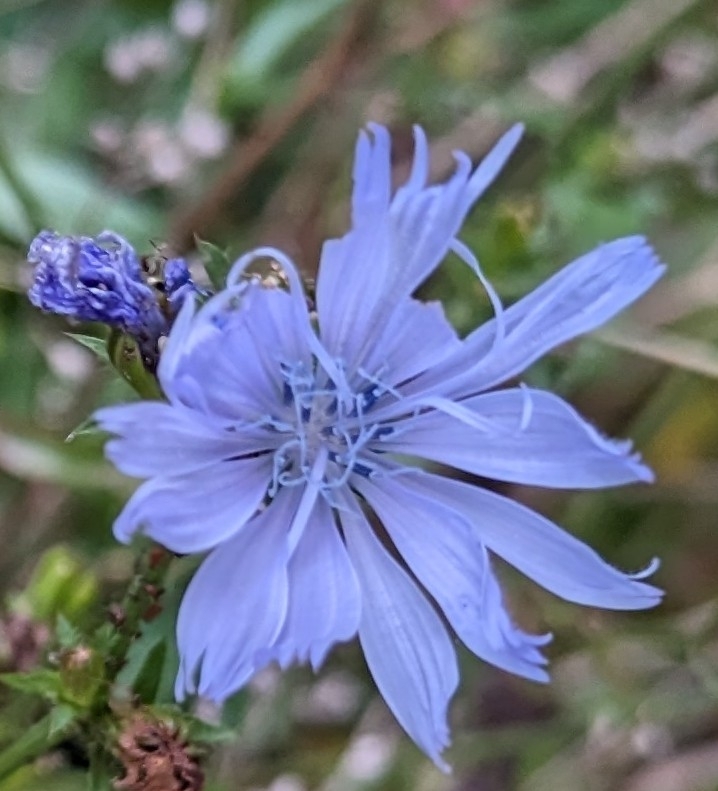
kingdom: Plantae
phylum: Tracheophyta
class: Magnoliopsida
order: Asterales
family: Asteraceae
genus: Cichorium
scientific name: Cichorium intybus
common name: Chicory
